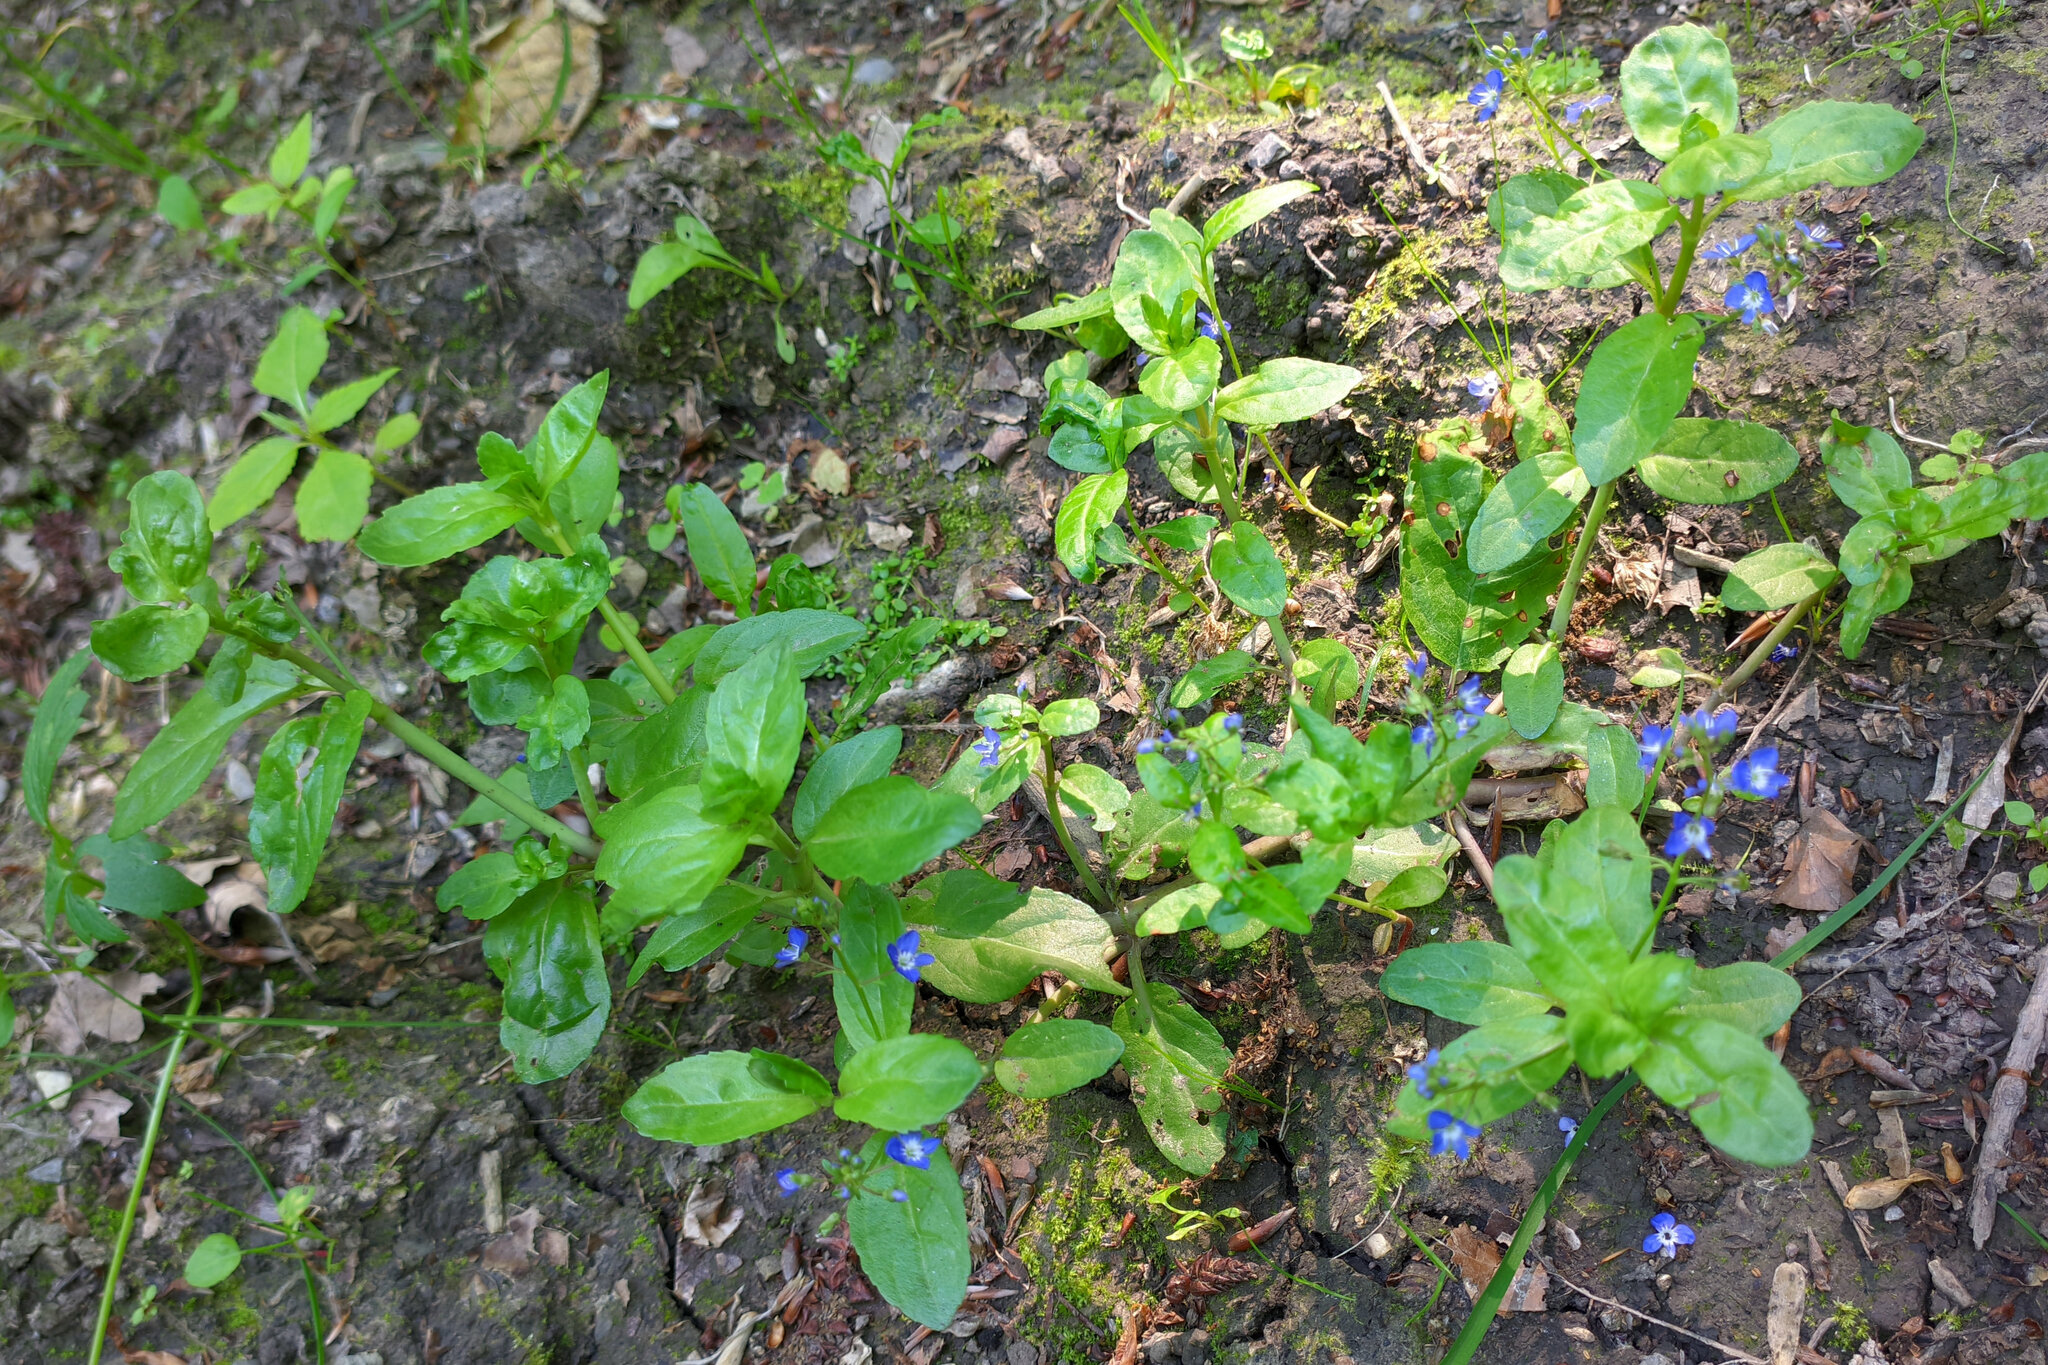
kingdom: Plantae
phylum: Tracheophyta
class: Magnoliopsida
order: Lamiales
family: Plantaginaceae
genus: Veronica
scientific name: Veronica beccabunga
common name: Brooklime
